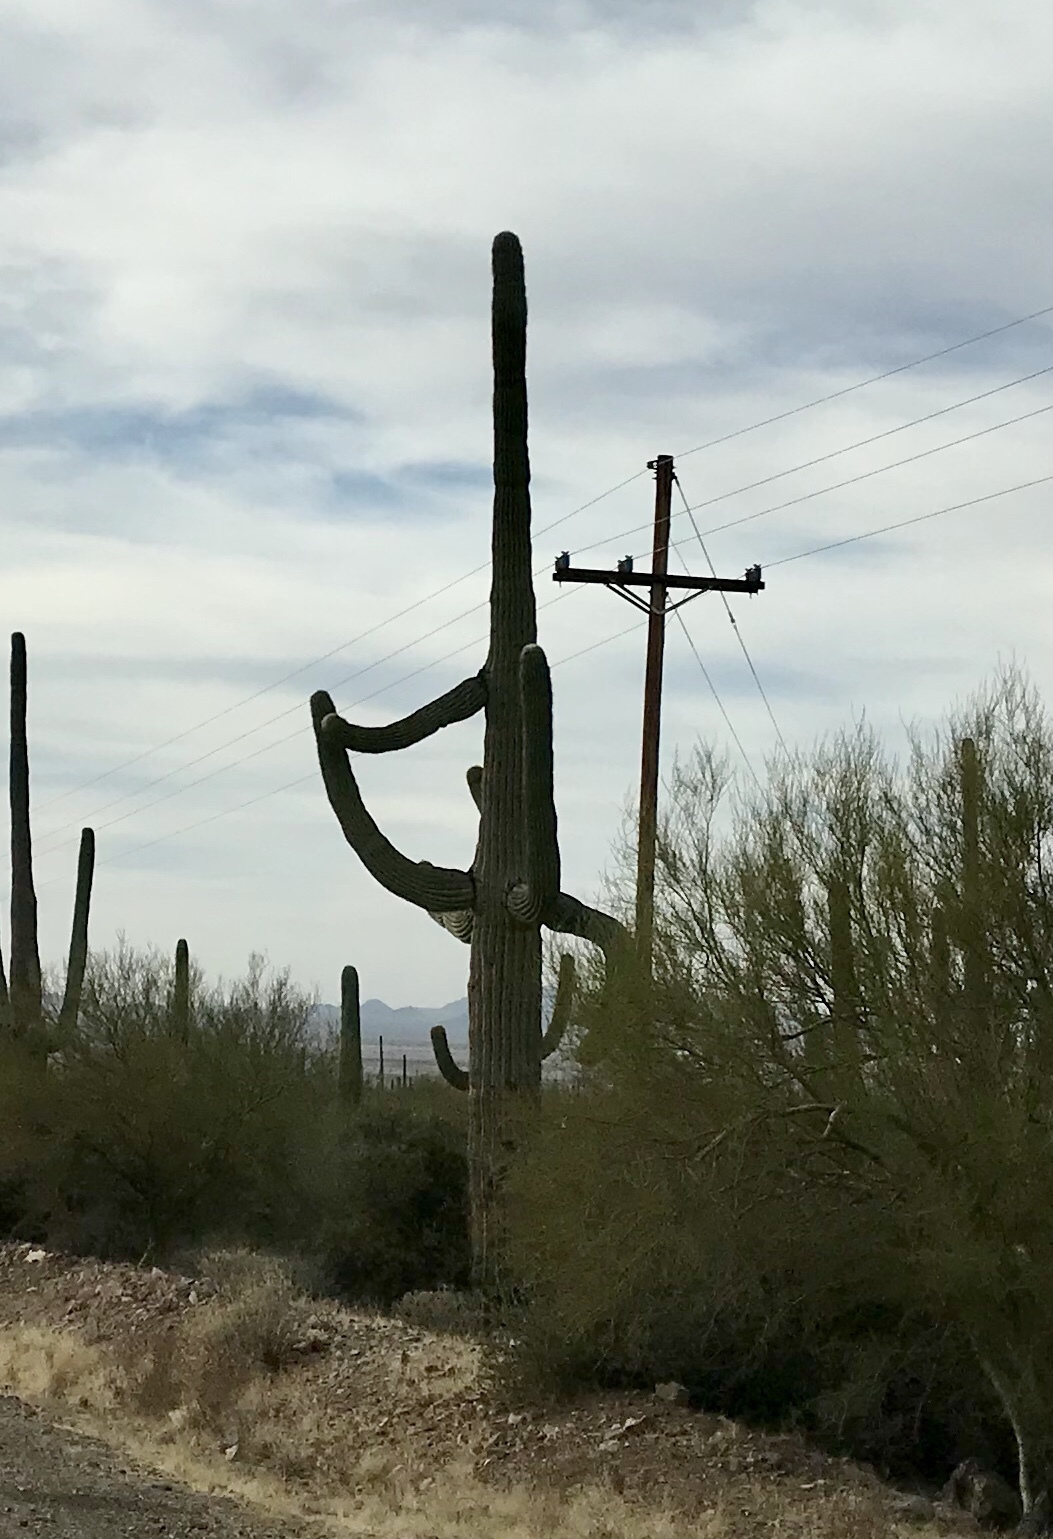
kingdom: Plantae
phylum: Tracheophyta
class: Magnoliopsida
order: Caryophyllales
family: Cactaceae
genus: Carnegiea
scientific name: Carnegiea gigantea
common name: Saguaro
